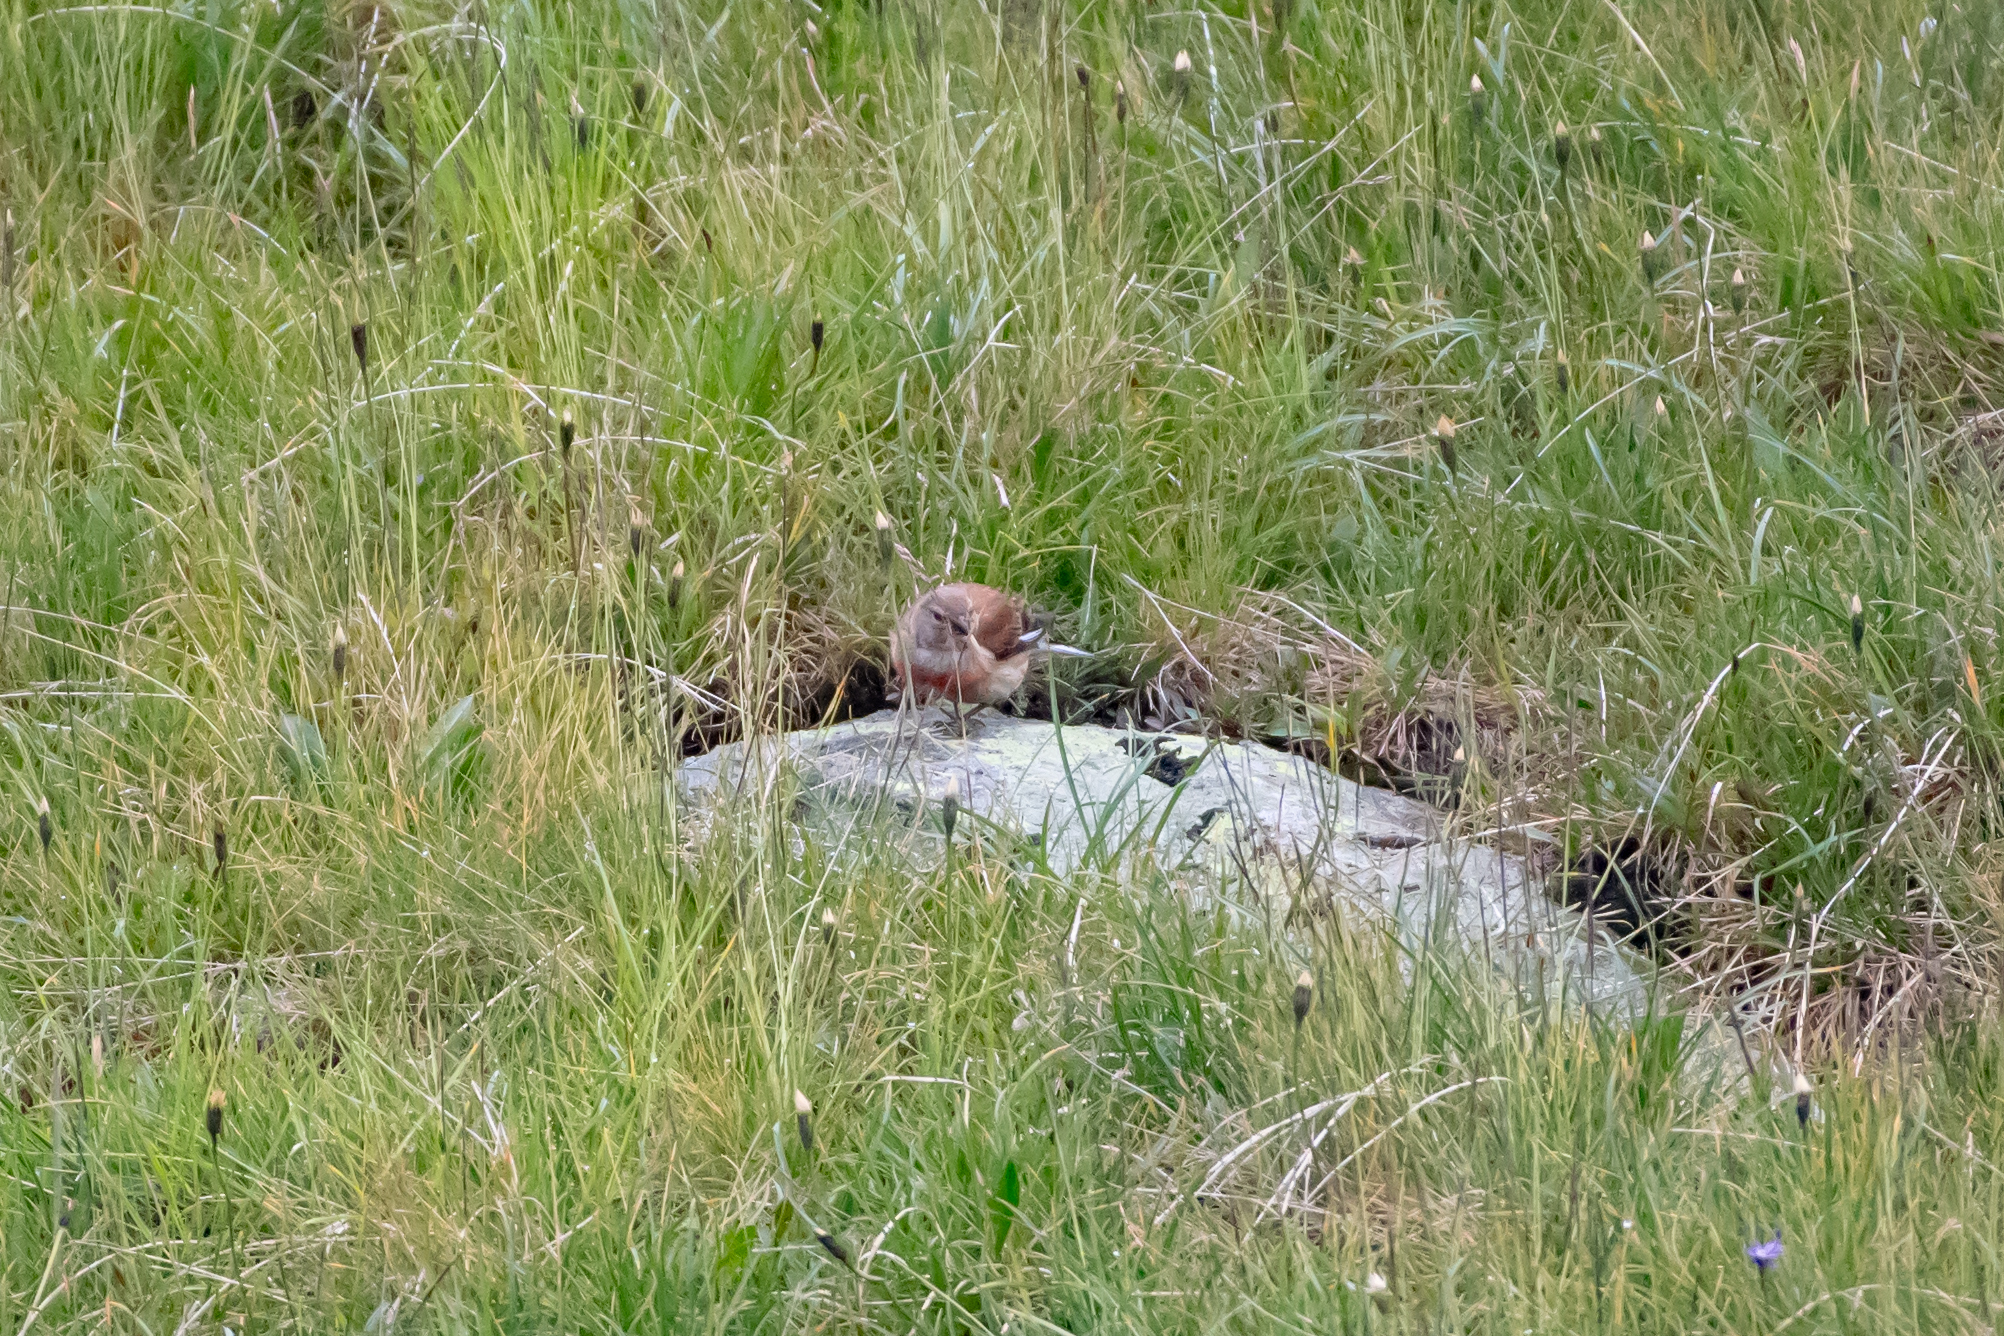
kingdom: Animalia
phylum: Chordata
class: Aves
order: Passeriformes
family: Fringillidae
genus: Linaria
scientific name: Linaria cannabina
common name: Common linnet
